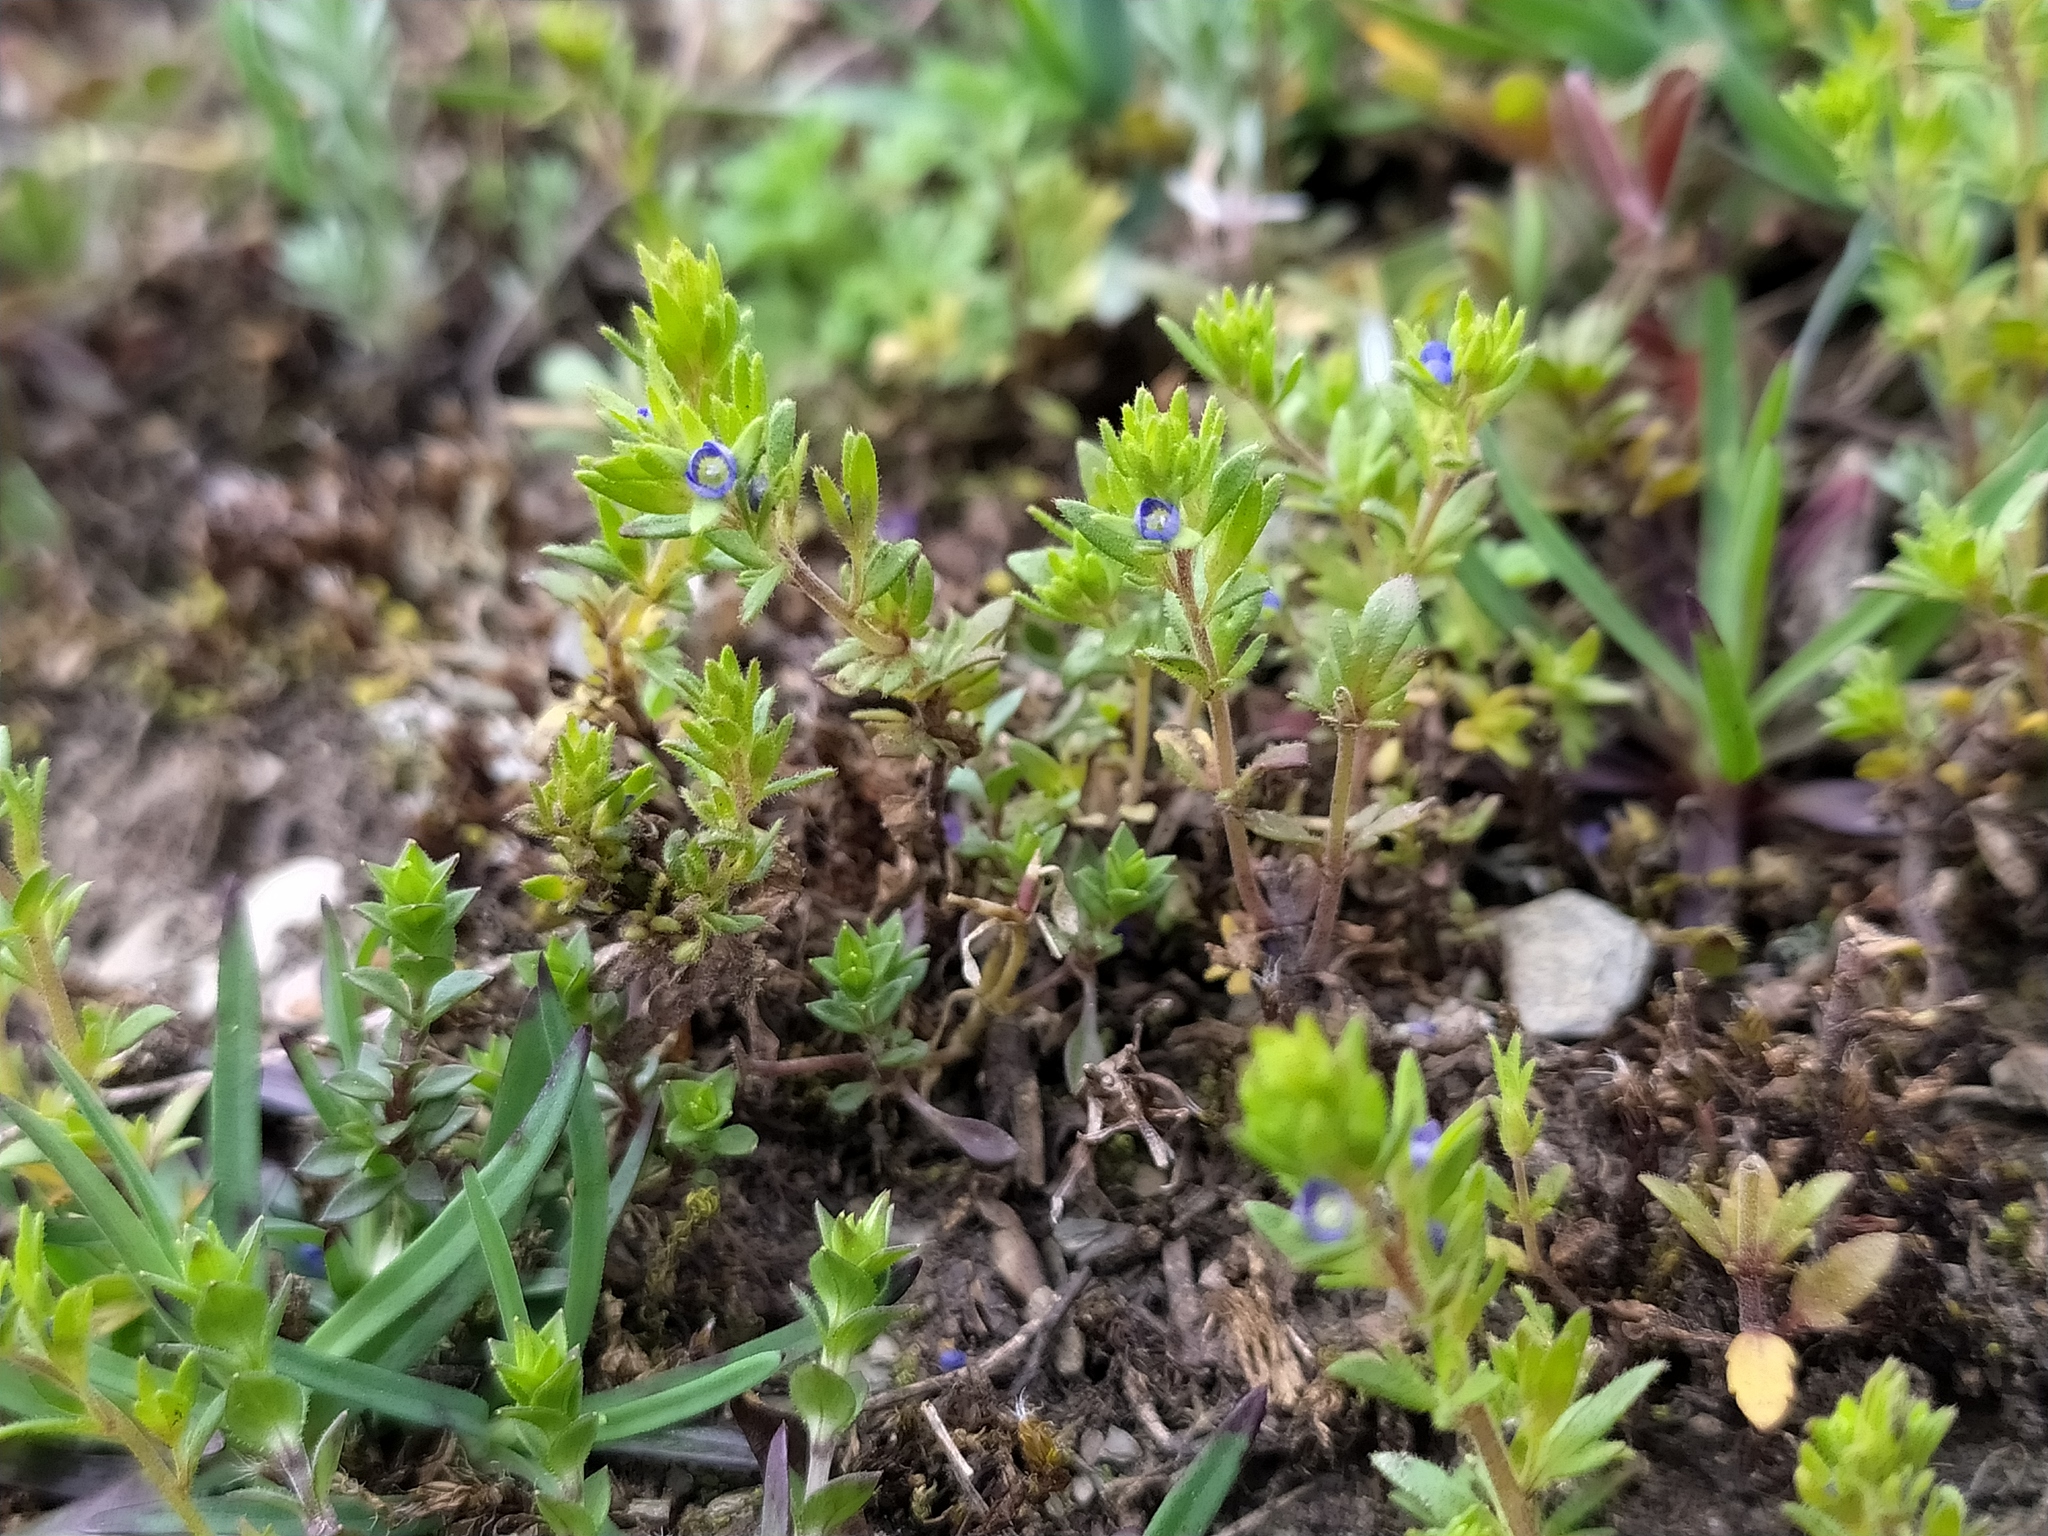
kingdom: Plantae
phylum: Tracheophyta
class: Magnoliopsida
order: Lamiales
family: Plantaginaceae
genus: Veronica
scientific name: Veronica verna
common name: Spring speedwell
